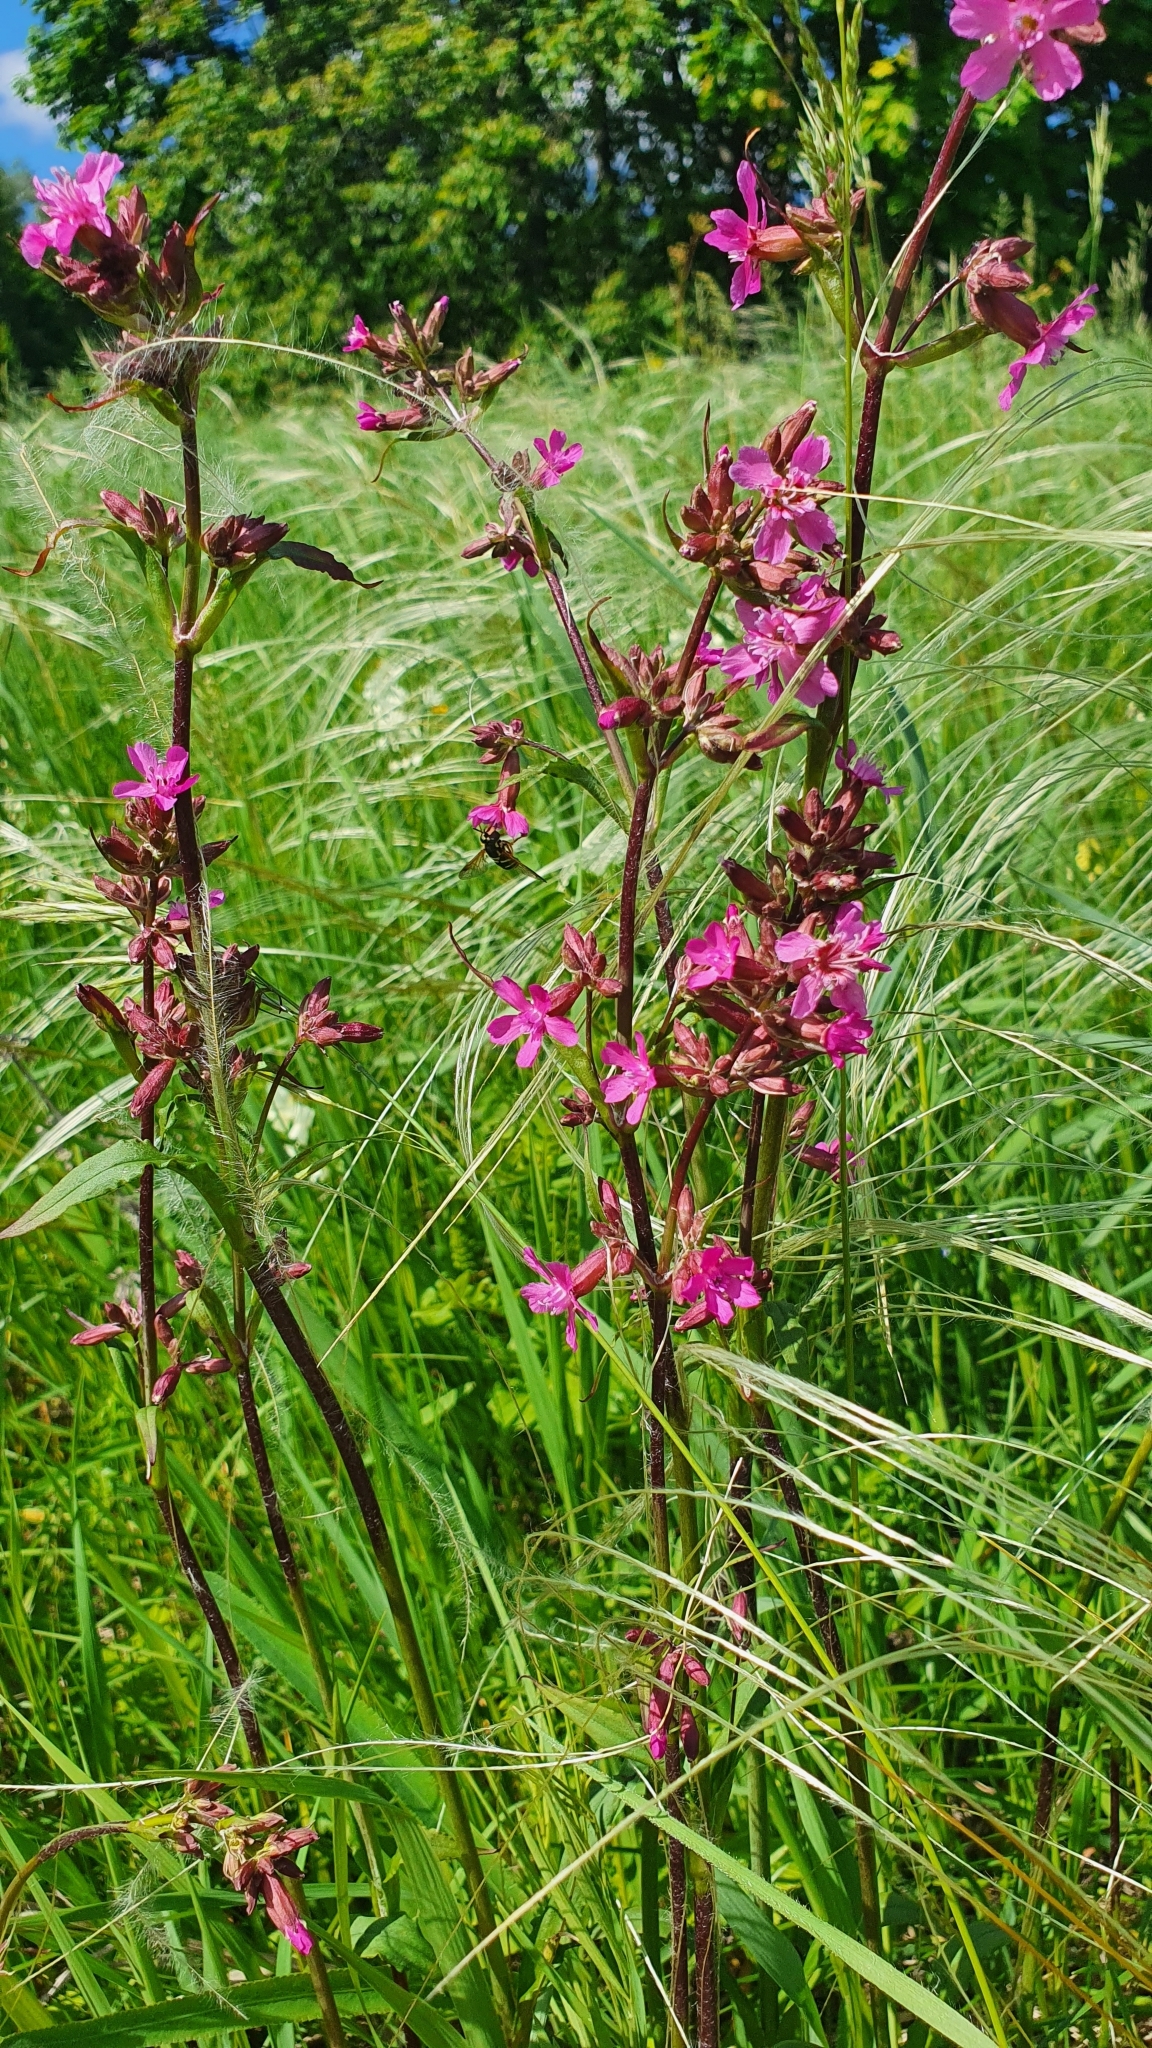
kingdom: Plantae
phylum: Tracheophyta
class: Magnoliopsida
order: Caryophyllales
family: Caryophyllaceae
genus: Viscaria
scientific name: Viscaria vulgaris
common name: Clammy campion
